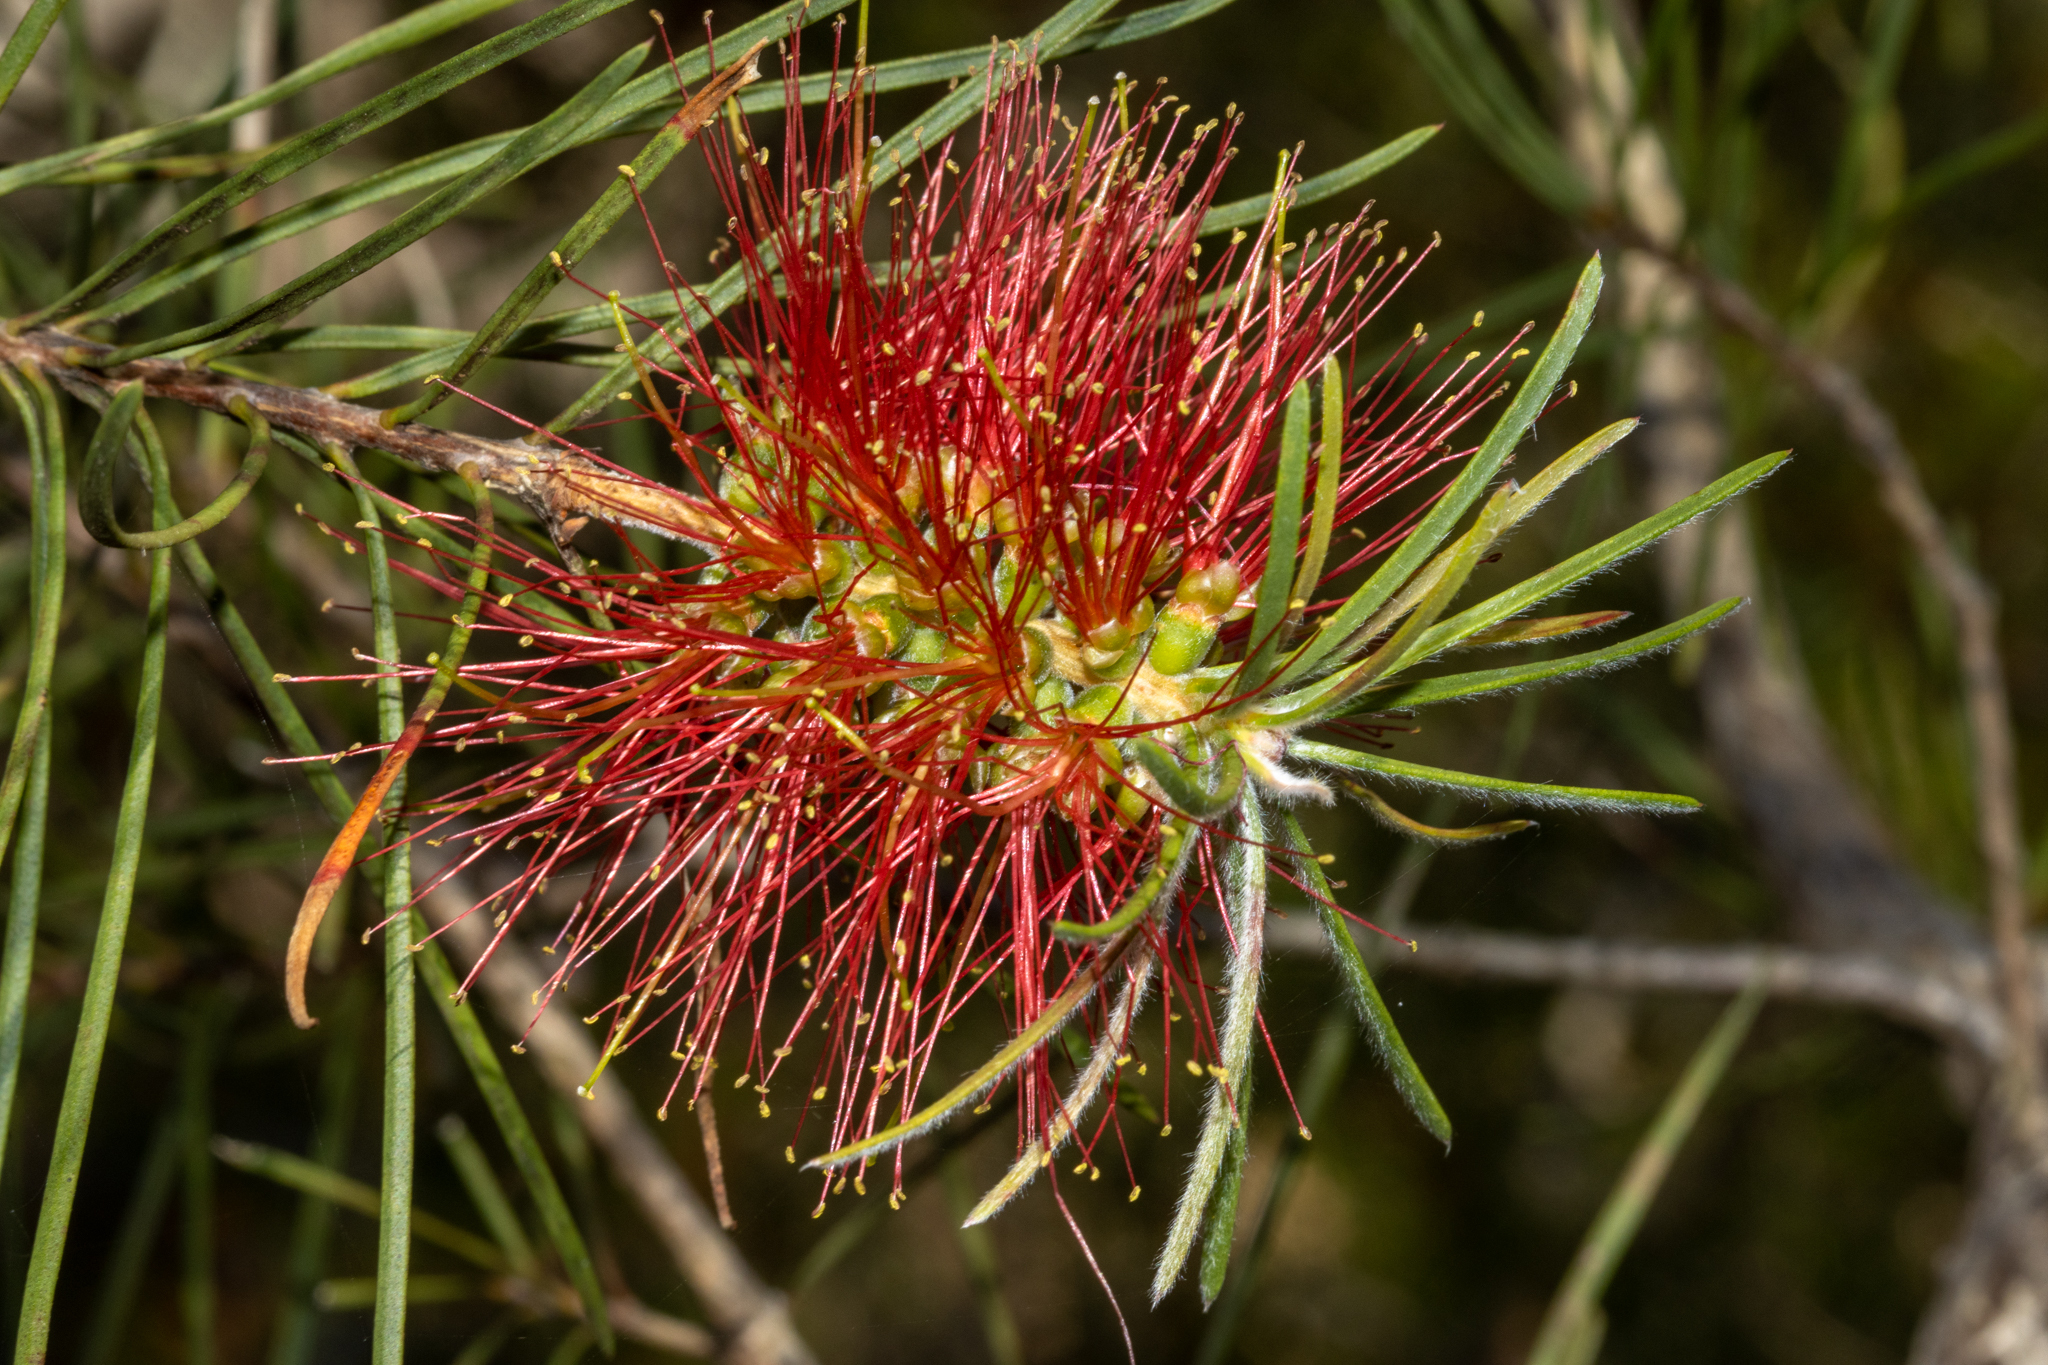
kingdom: Plantae
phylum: Tracheophyta
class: Magnoliopsida
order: Myrtales
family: Myrtaceae
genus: Callistemon
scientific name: Callistemon linearis
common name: Narrow-leaf bottlebrush
